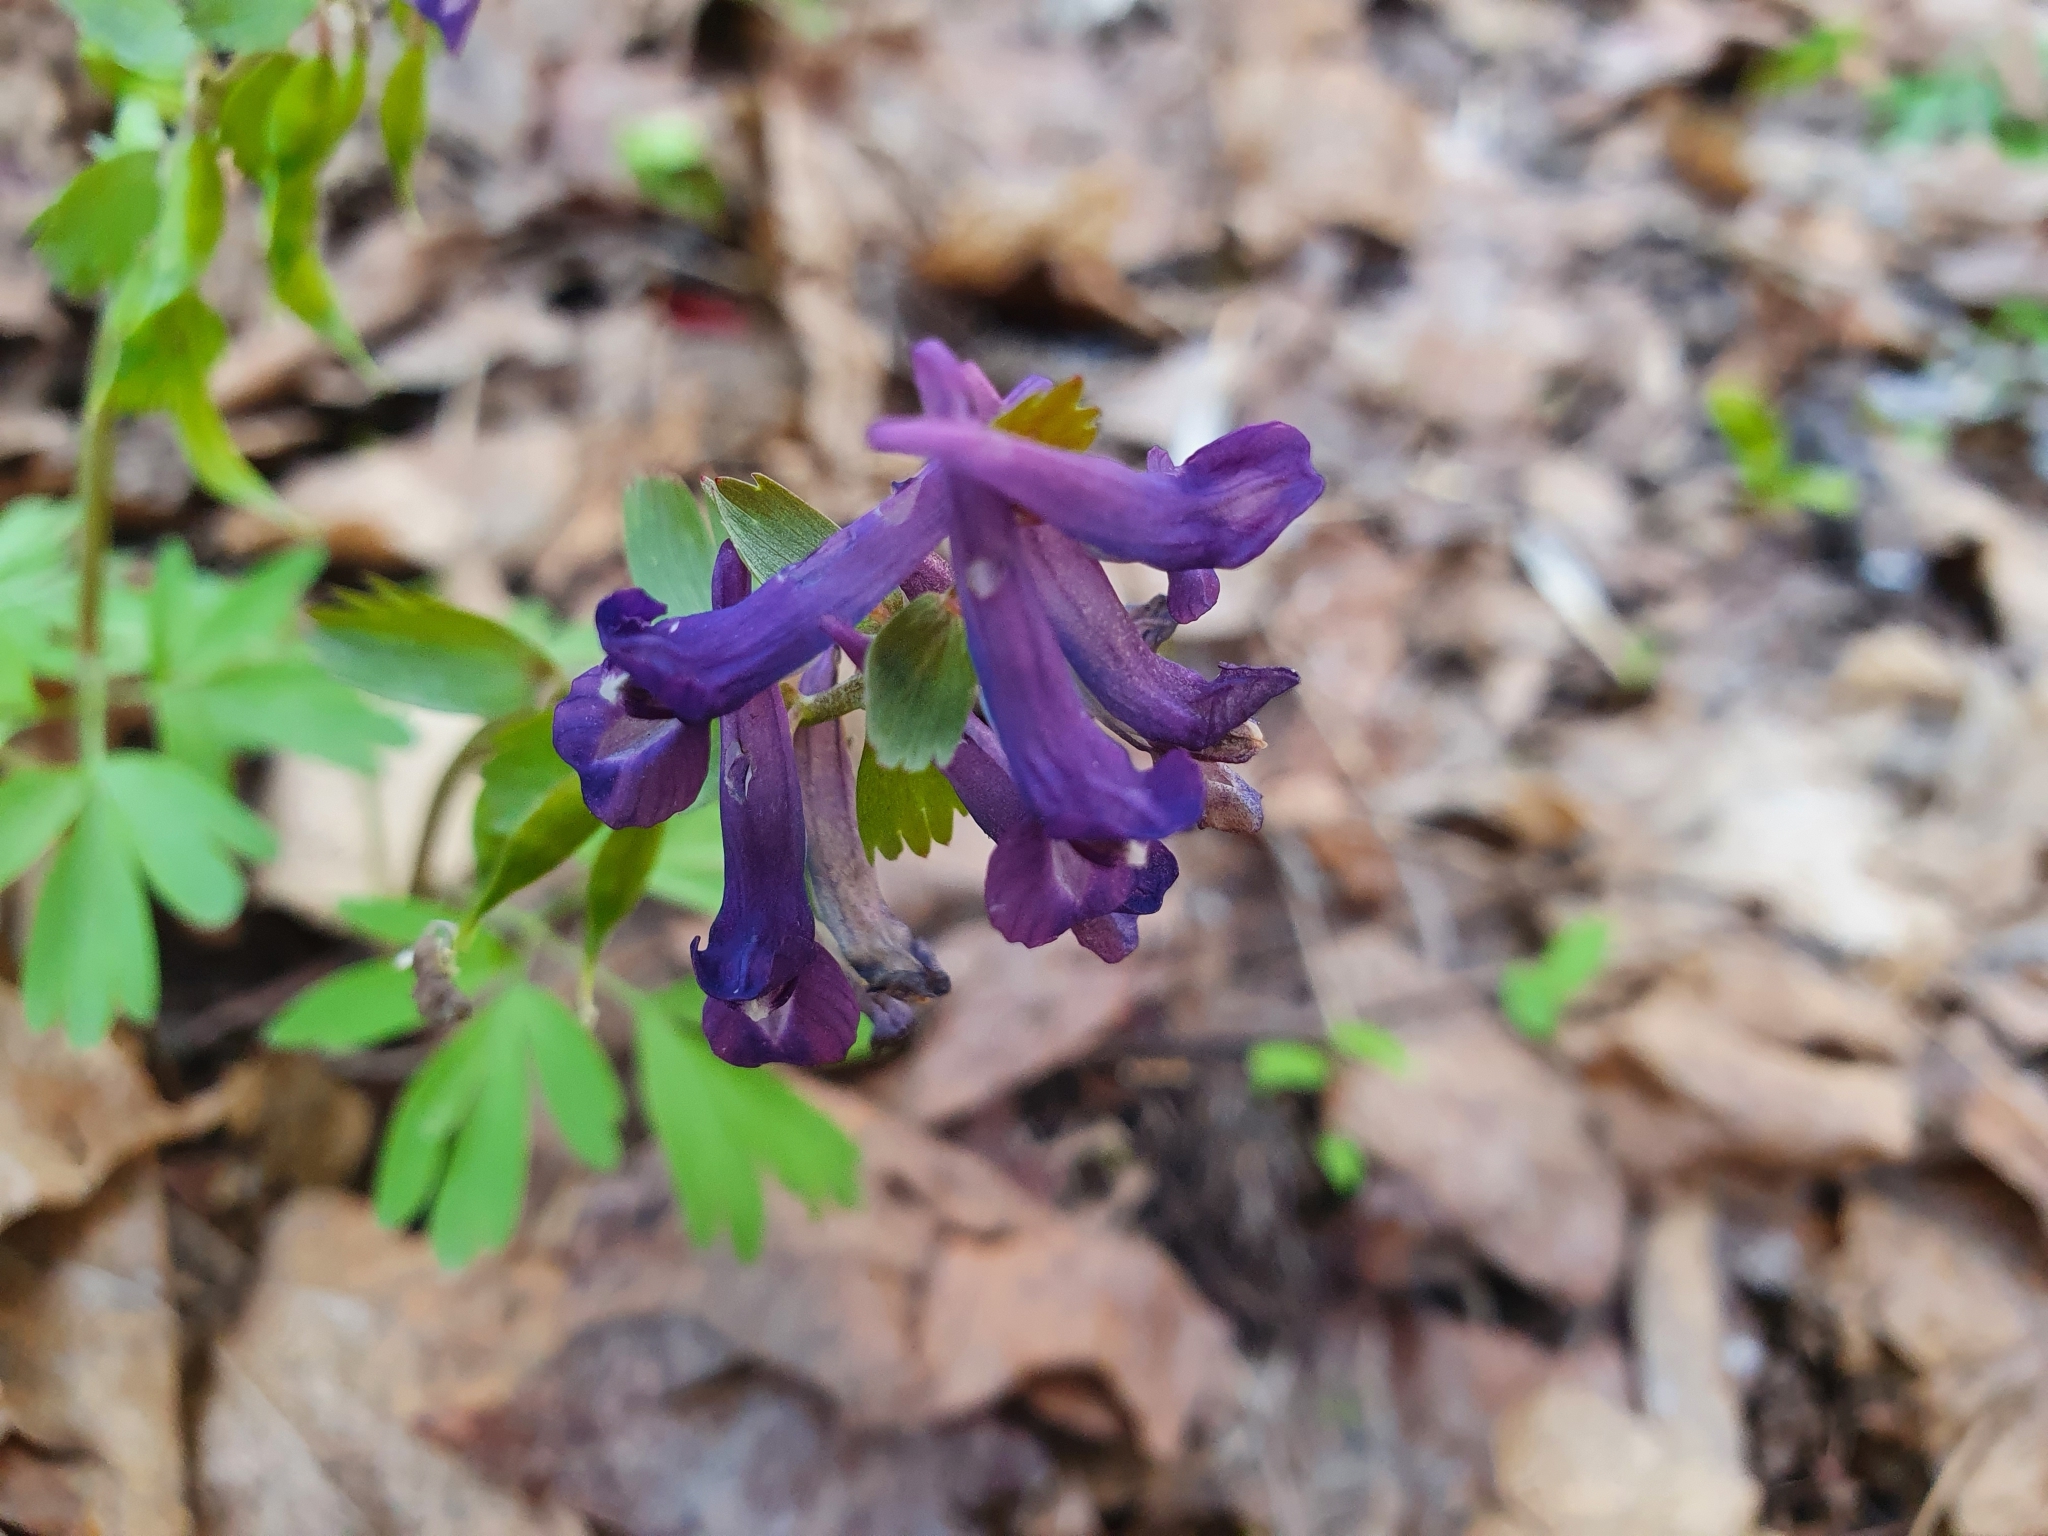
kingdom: Plantae
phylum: Tracheophyta
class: Magnoliopsida
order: Ranunculales
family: Papaveraceae
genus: Corydalis
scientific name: Corydalis solida
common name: Bird-in-a-bush
